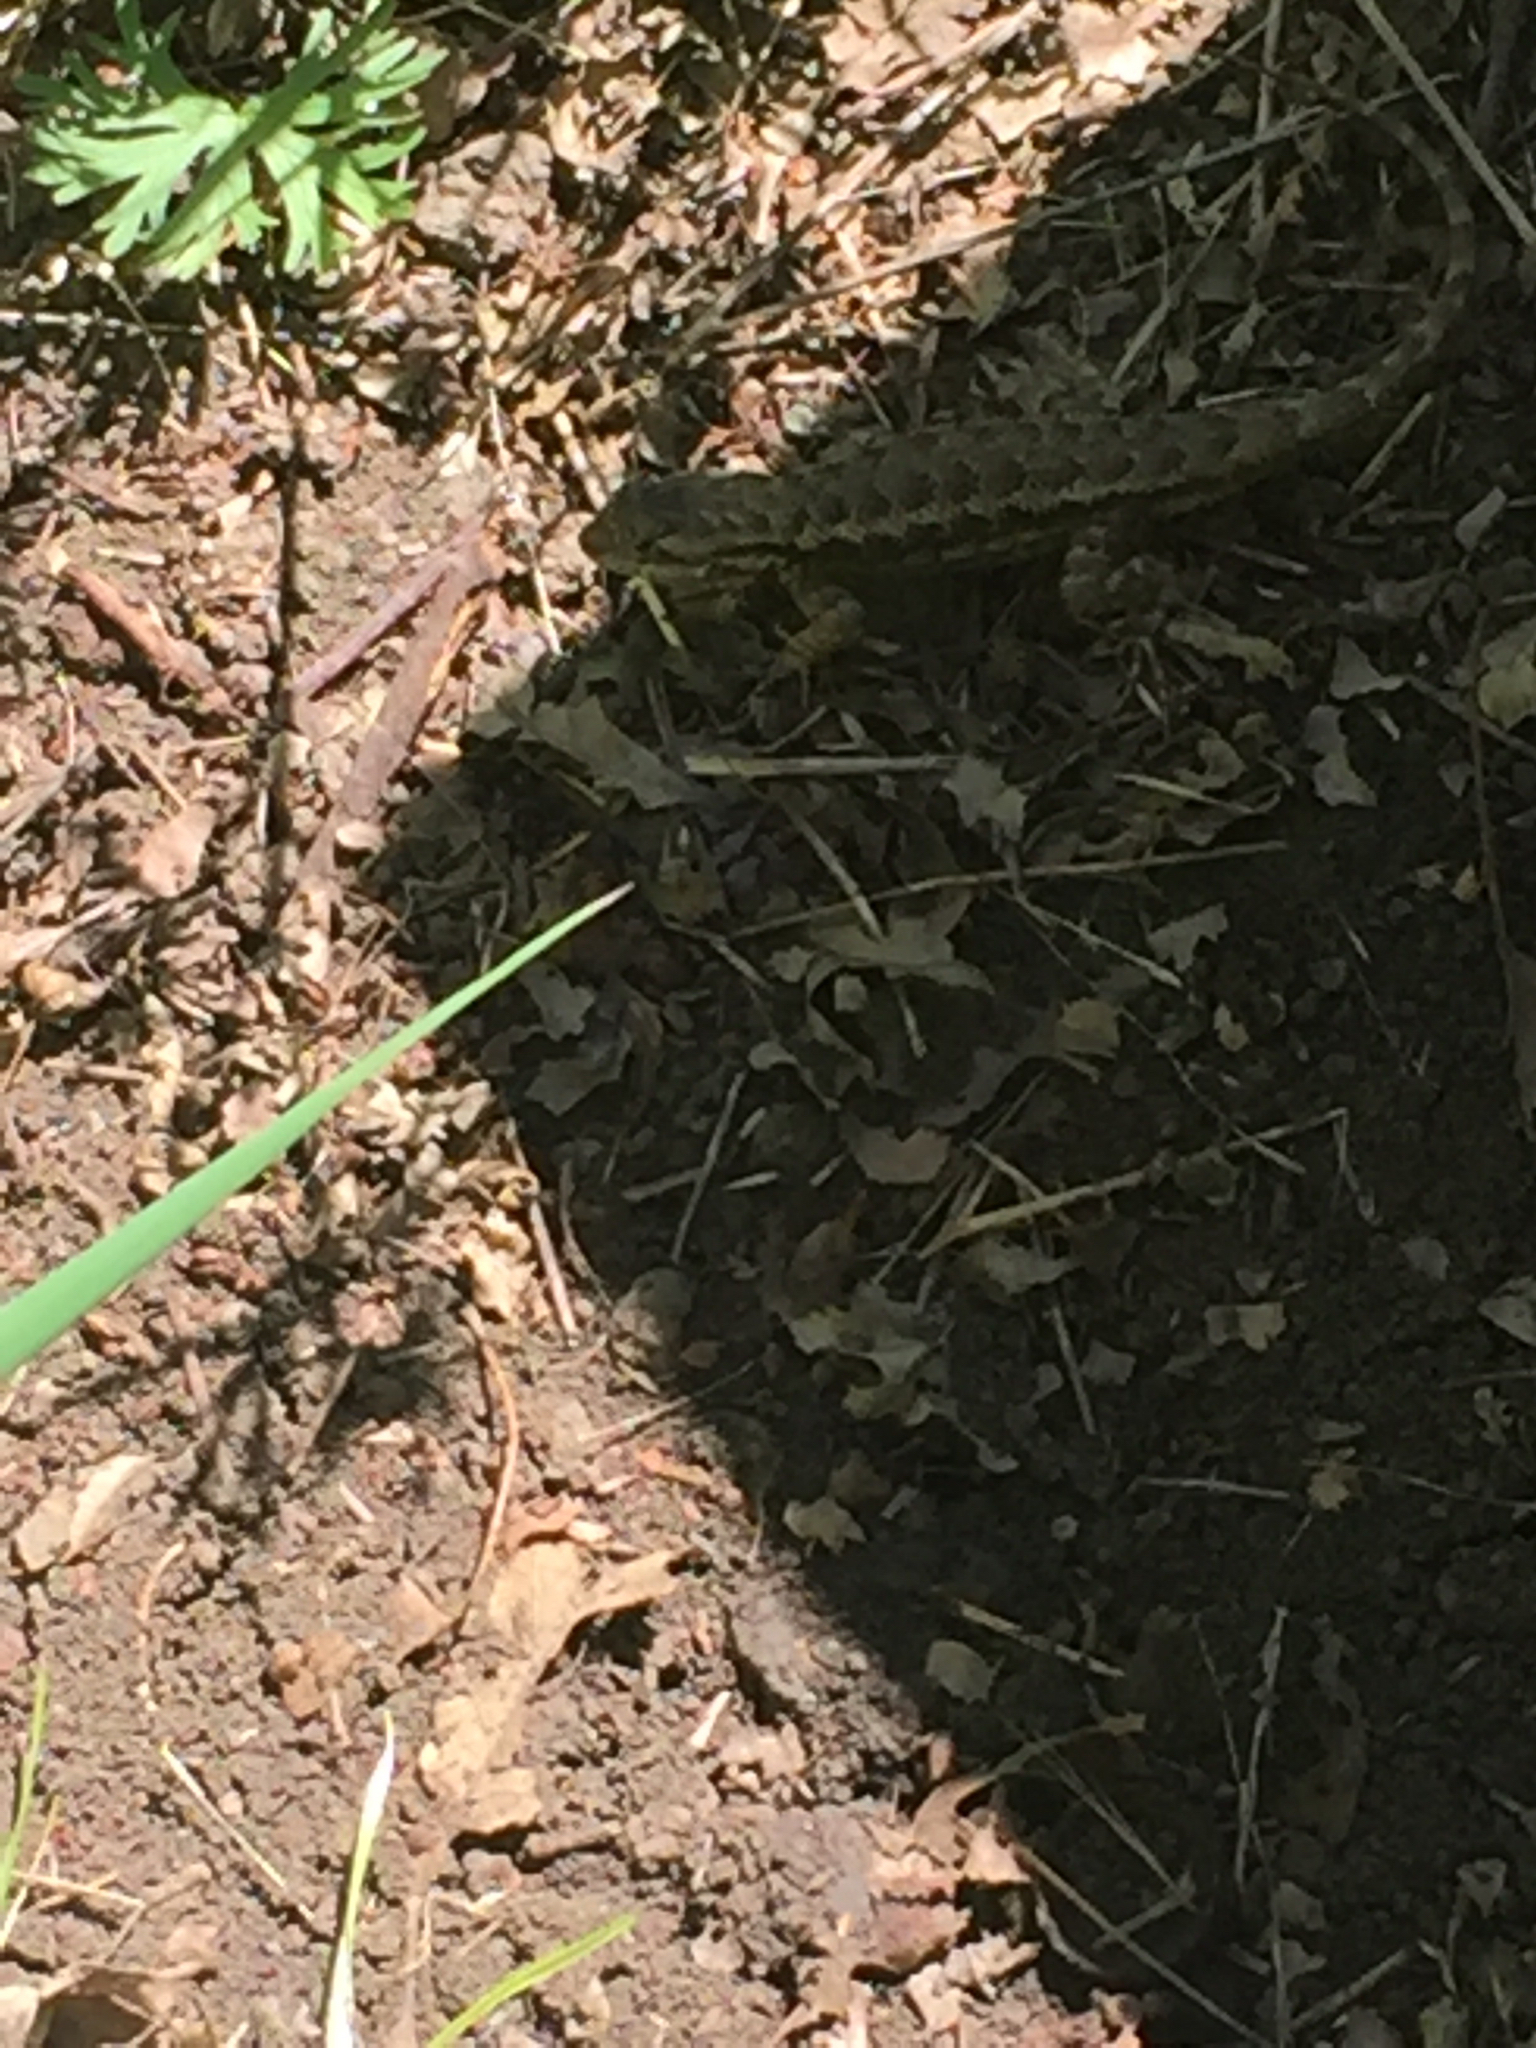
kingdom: Animalia
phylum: Chordata
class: Squamata
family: Phrynosomatidae
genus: Sceloporus
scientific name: Sceloporus occidentalis
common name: Western fence lizard
